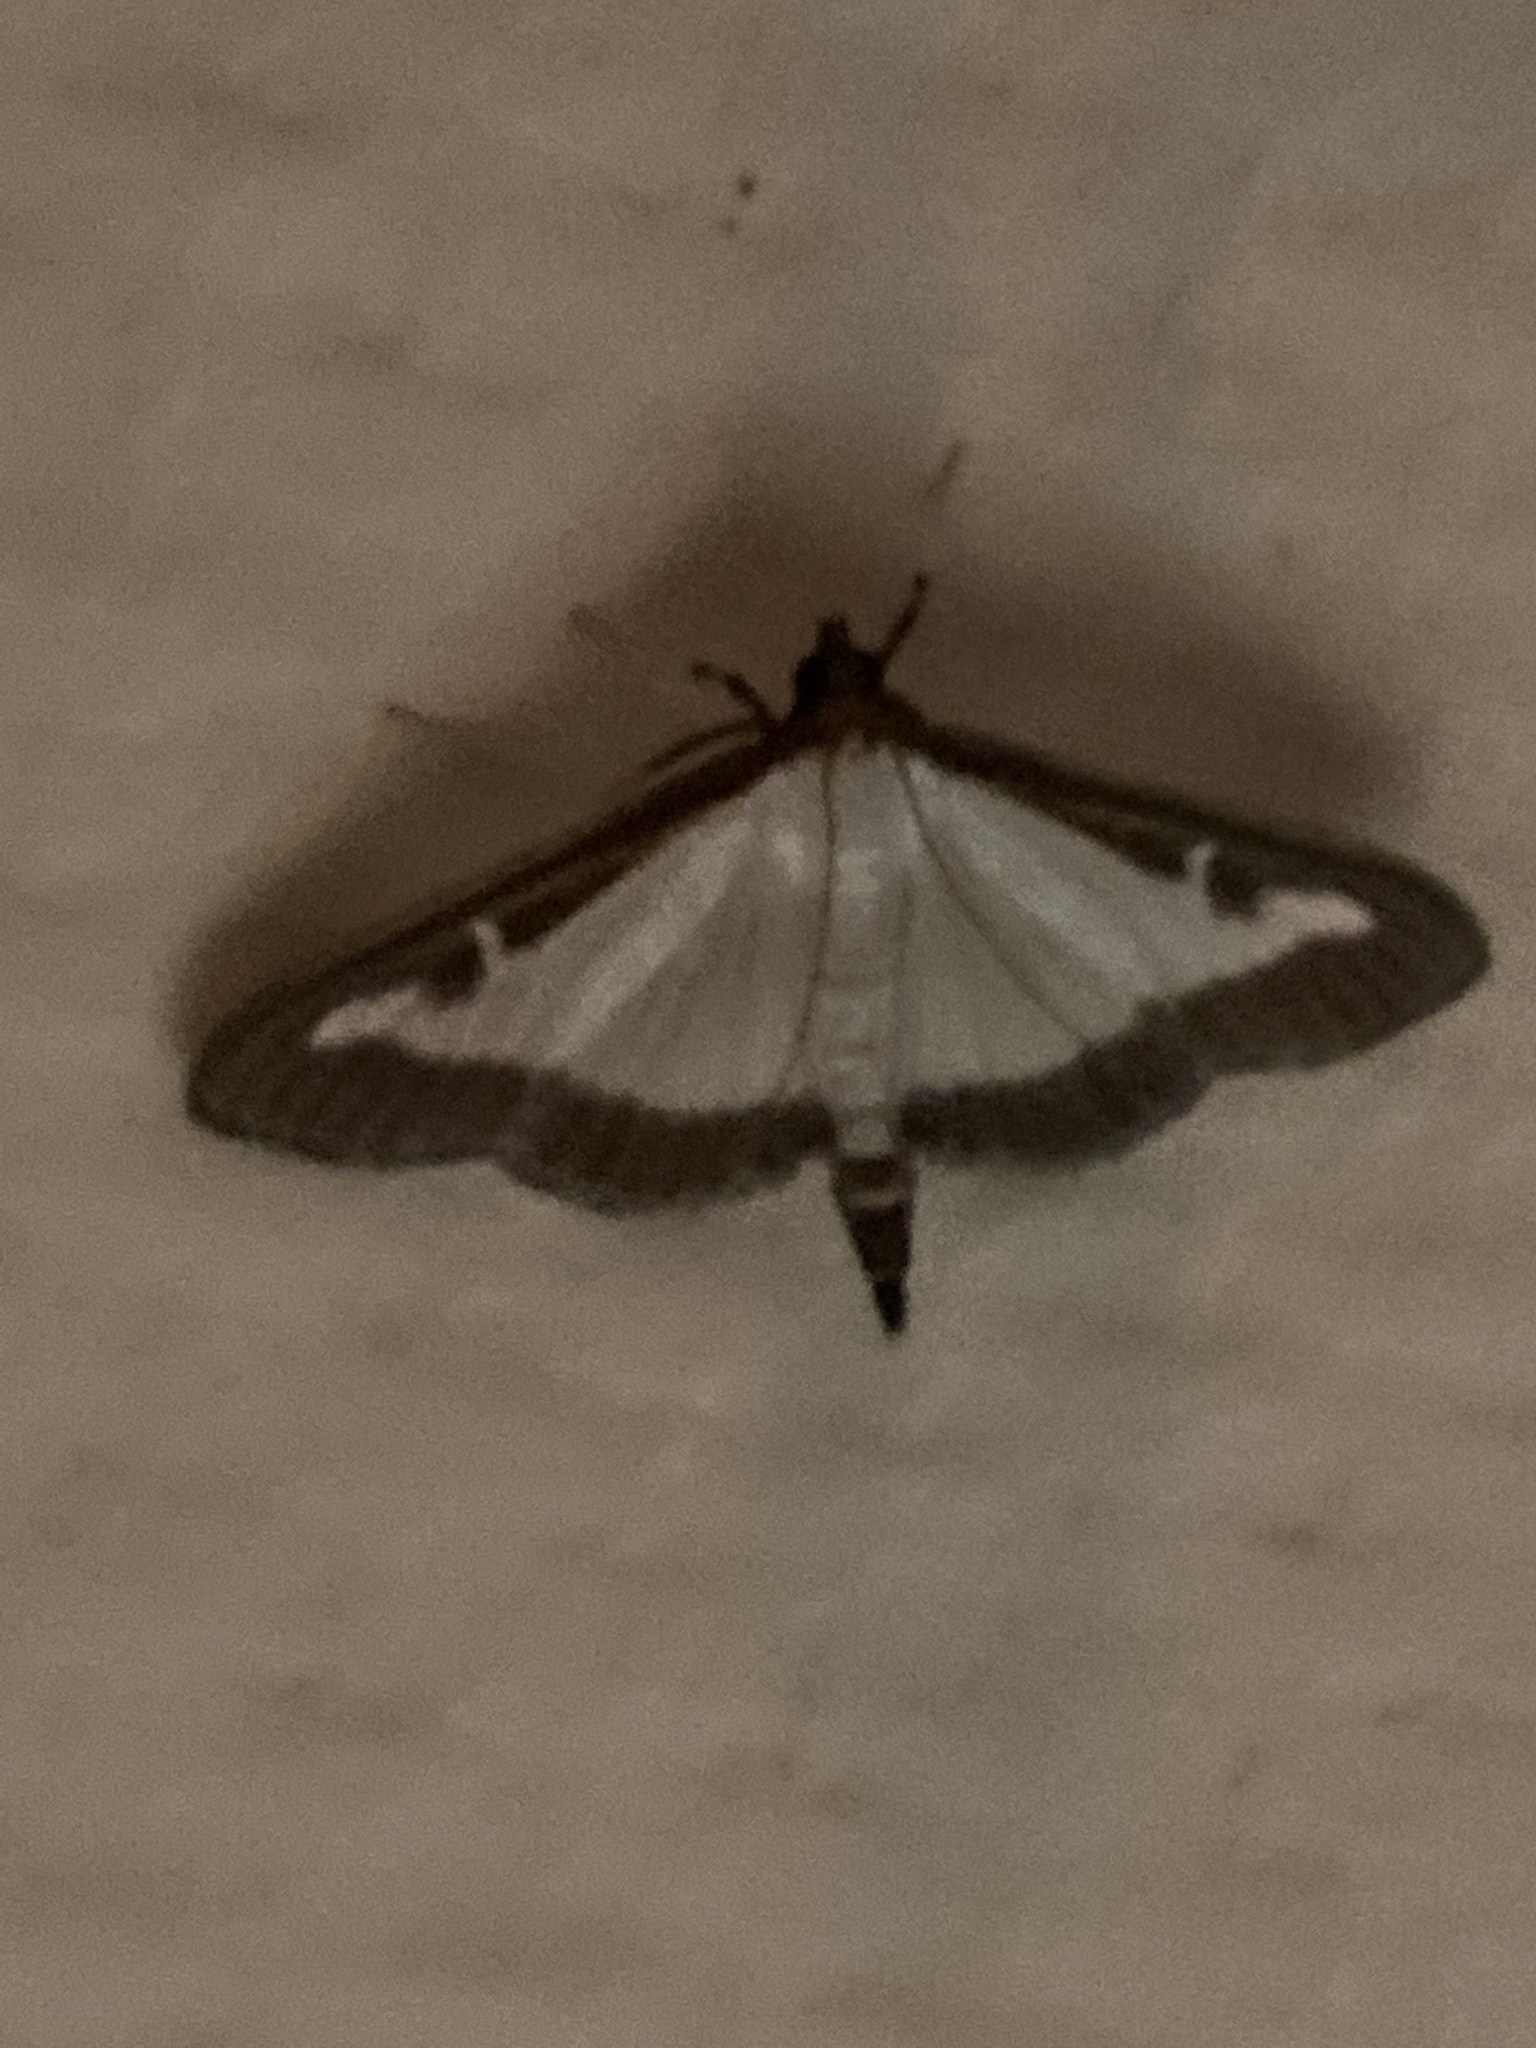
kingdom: Animalia
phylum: Arthropoda
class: Insecta
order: Lepidoptera
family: Crambidae
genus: Cydalima
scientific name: Cydalima perspectalis
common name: Box tree moth
